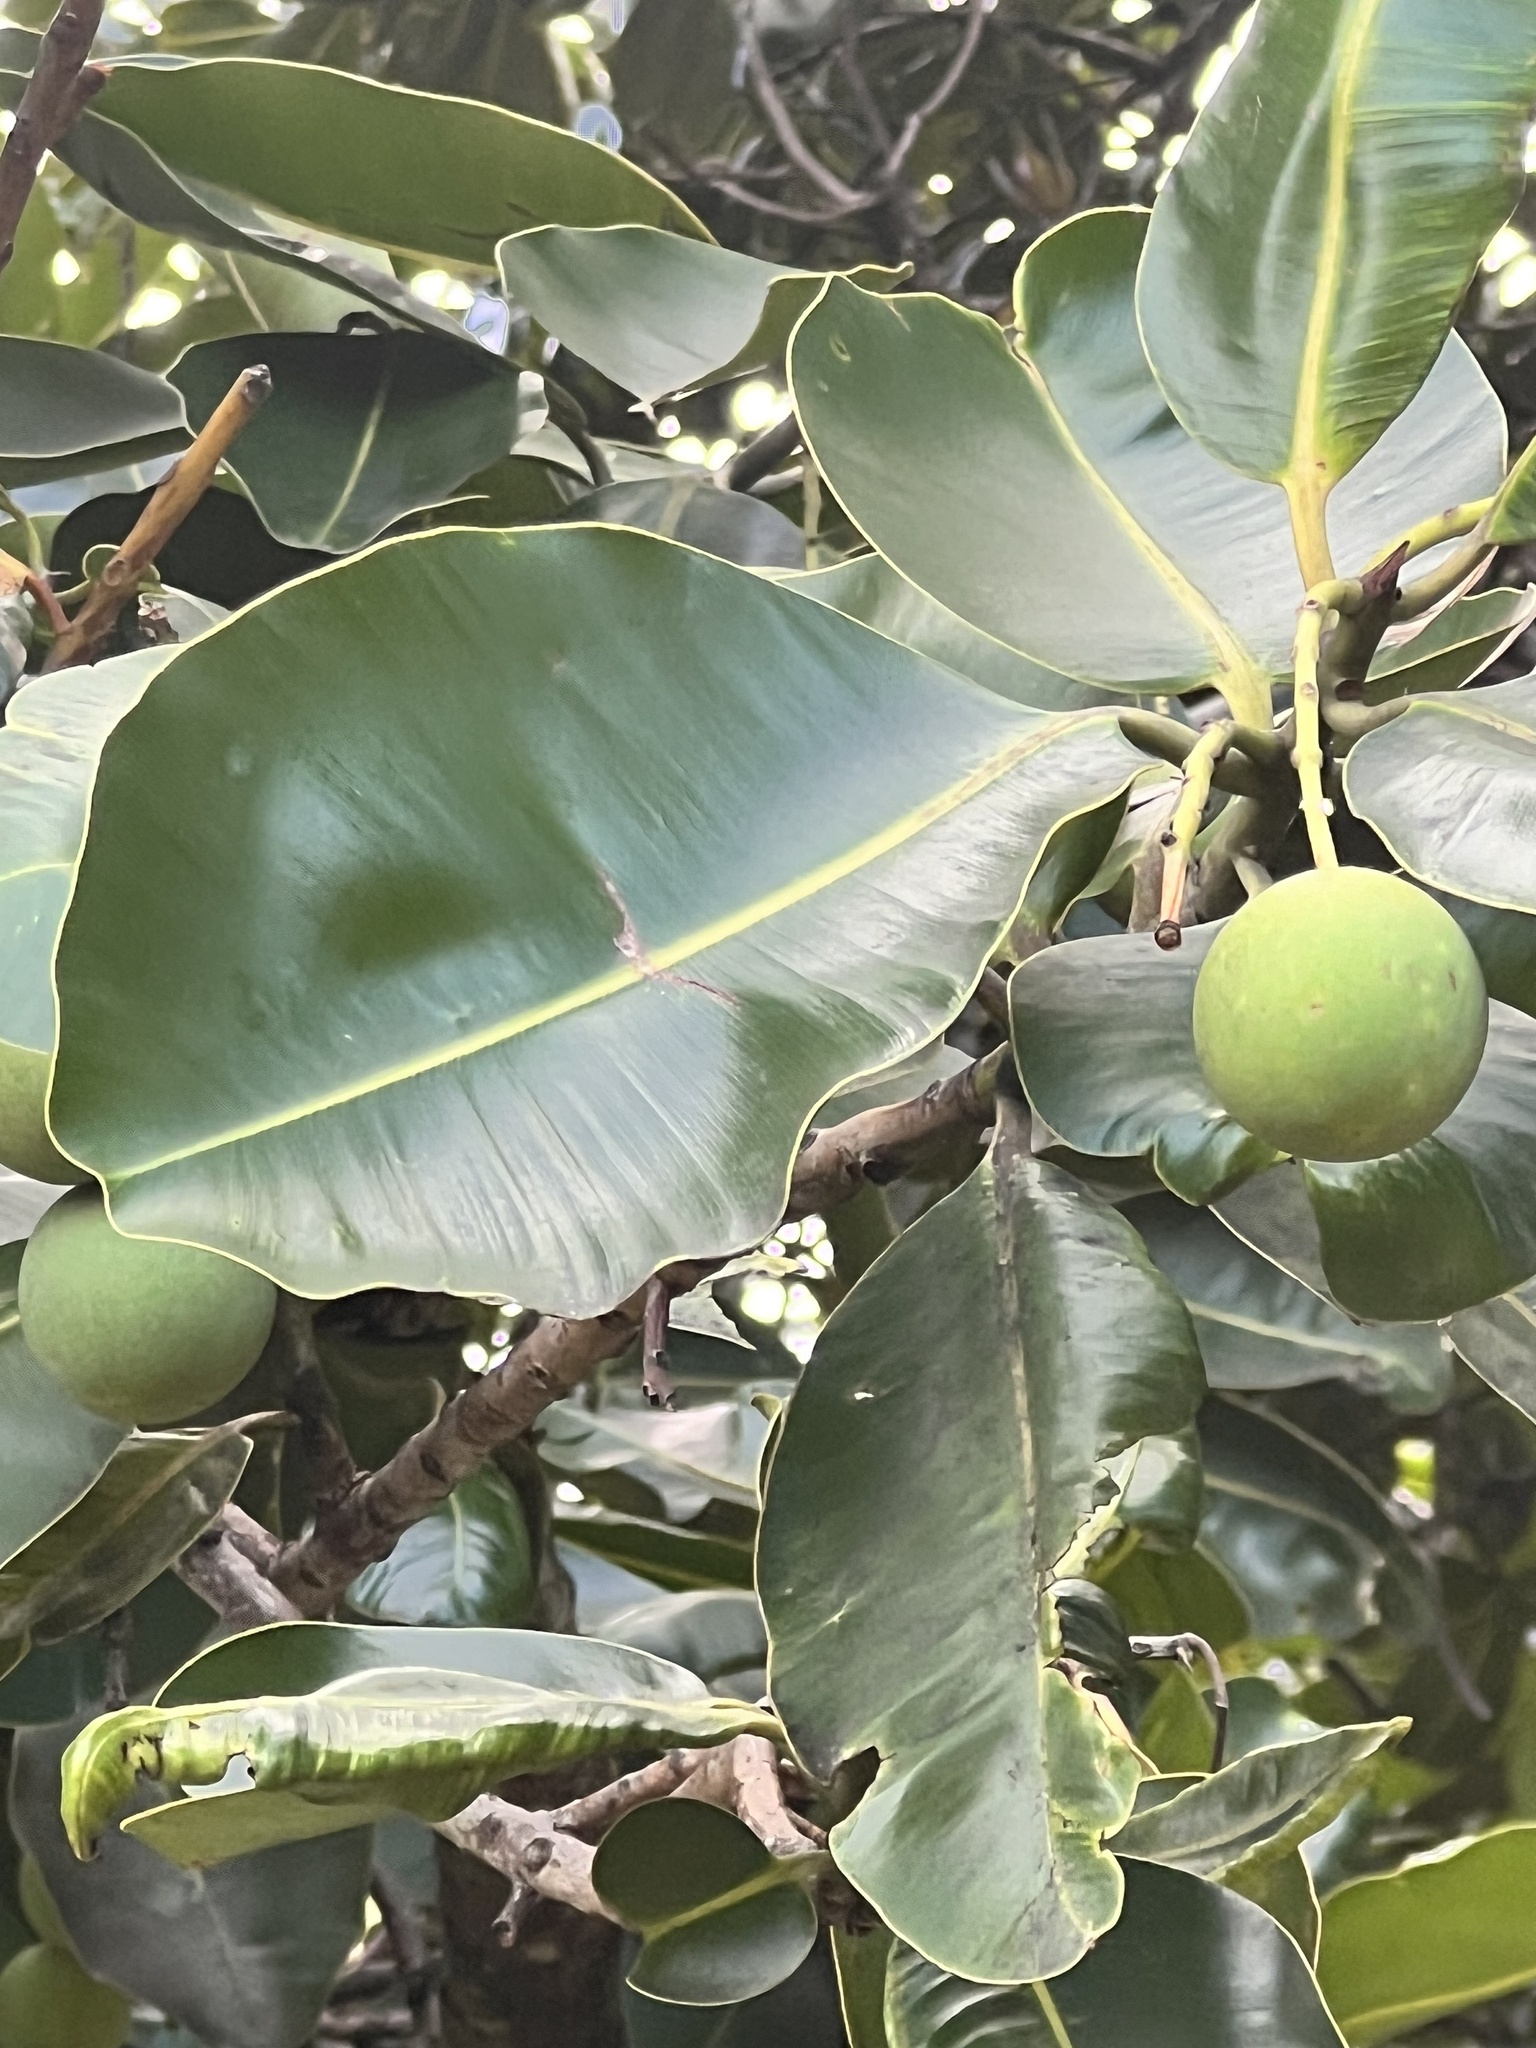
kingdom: Plantae
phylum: Tracheophyta
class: Magnoliopsida
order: Malpighiales
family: Calophyllaceae
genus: Calophyllum
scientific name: Calophyllum inophyllum
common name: Alexandrian laurel
